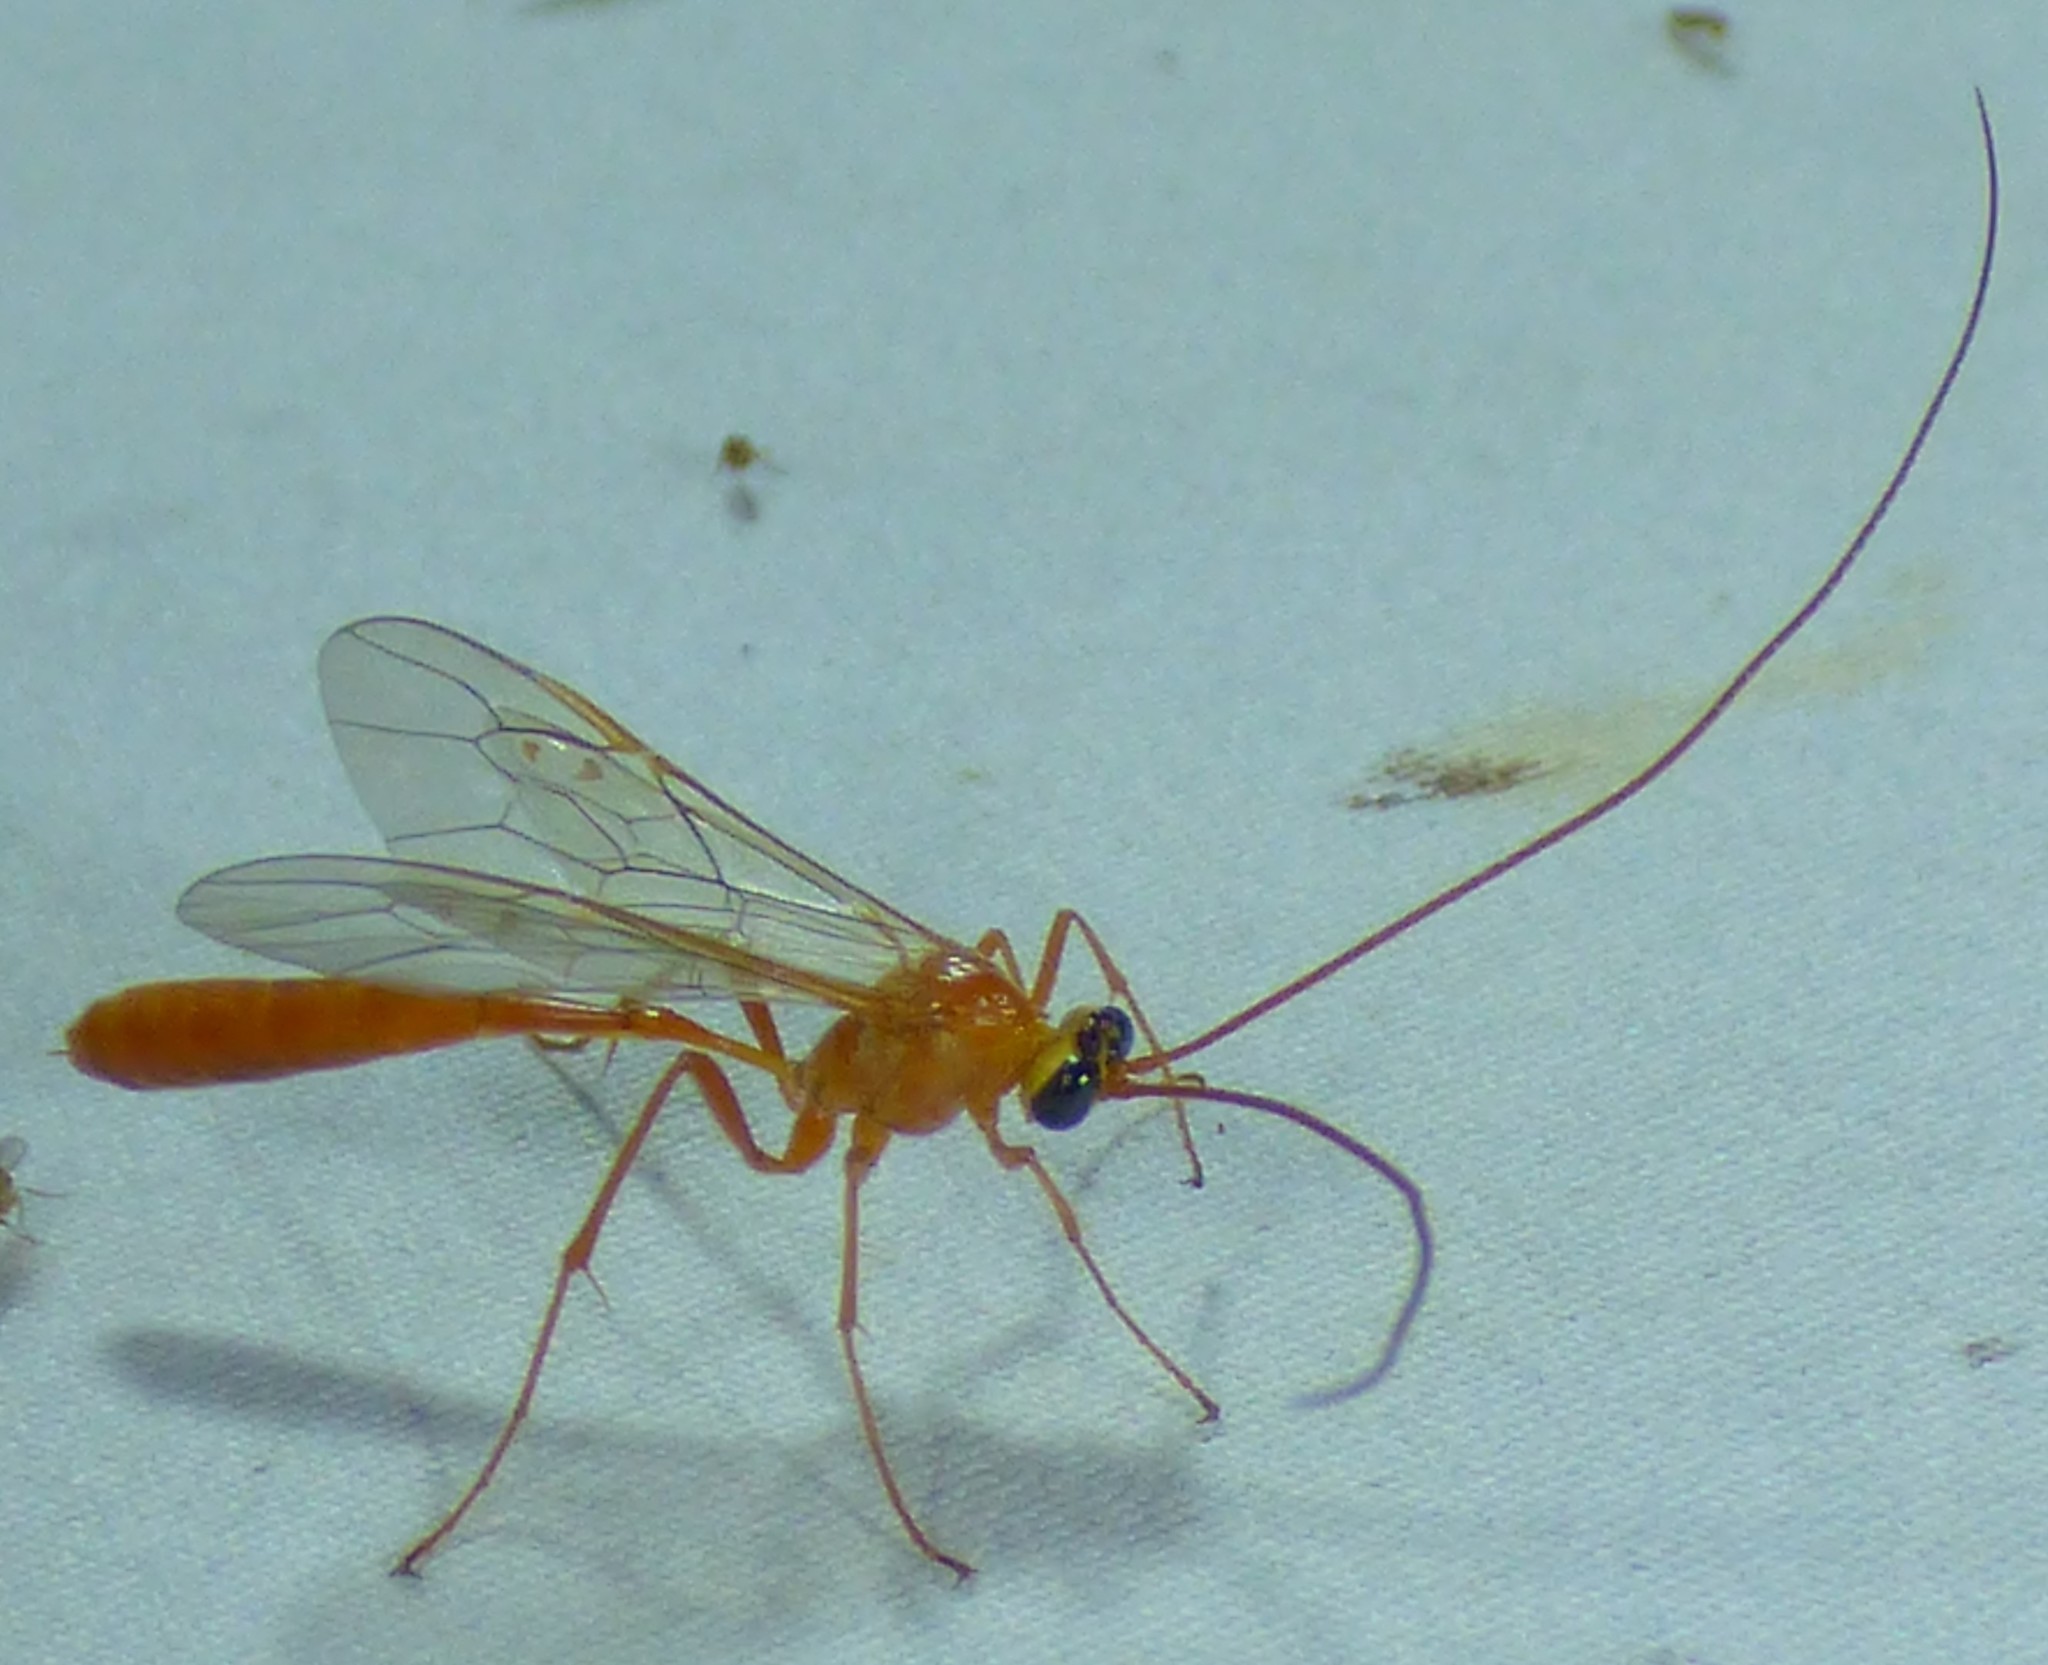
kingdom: Animalia
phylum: Arthropoda
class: Insecta
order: Hymenoptera
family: Ichneumonidae
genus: Enicospilus
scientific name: Enicospilus purgatus
